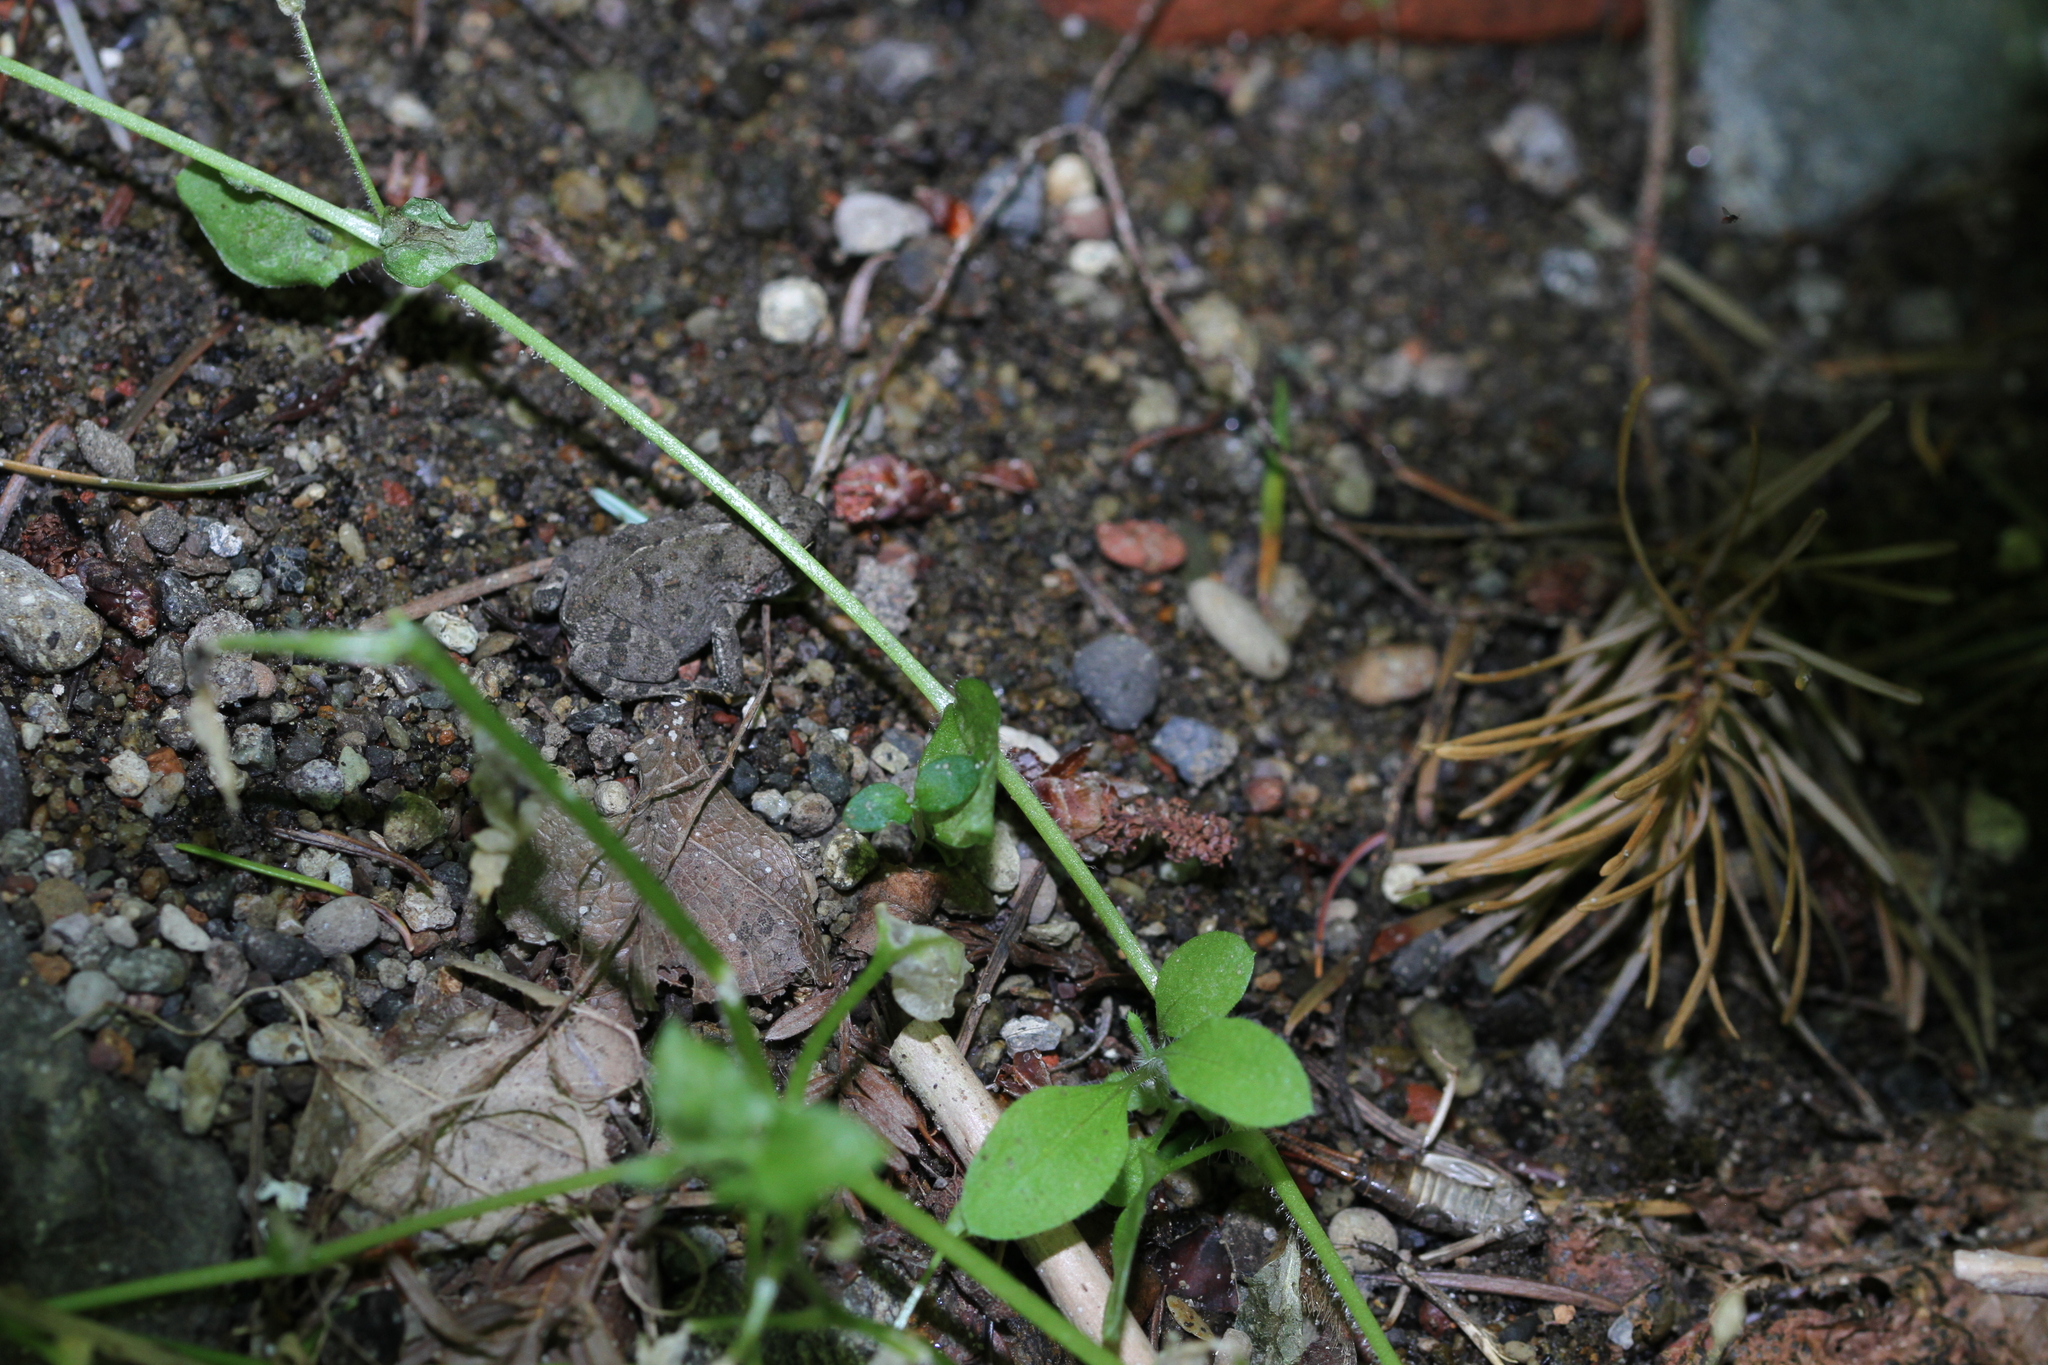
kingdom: Animalia
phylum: Chordata
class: Amphibia
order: Anura
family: Bufonidae
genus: Anaxyrus
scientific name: Anaxyrus boreas
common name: Western toad
